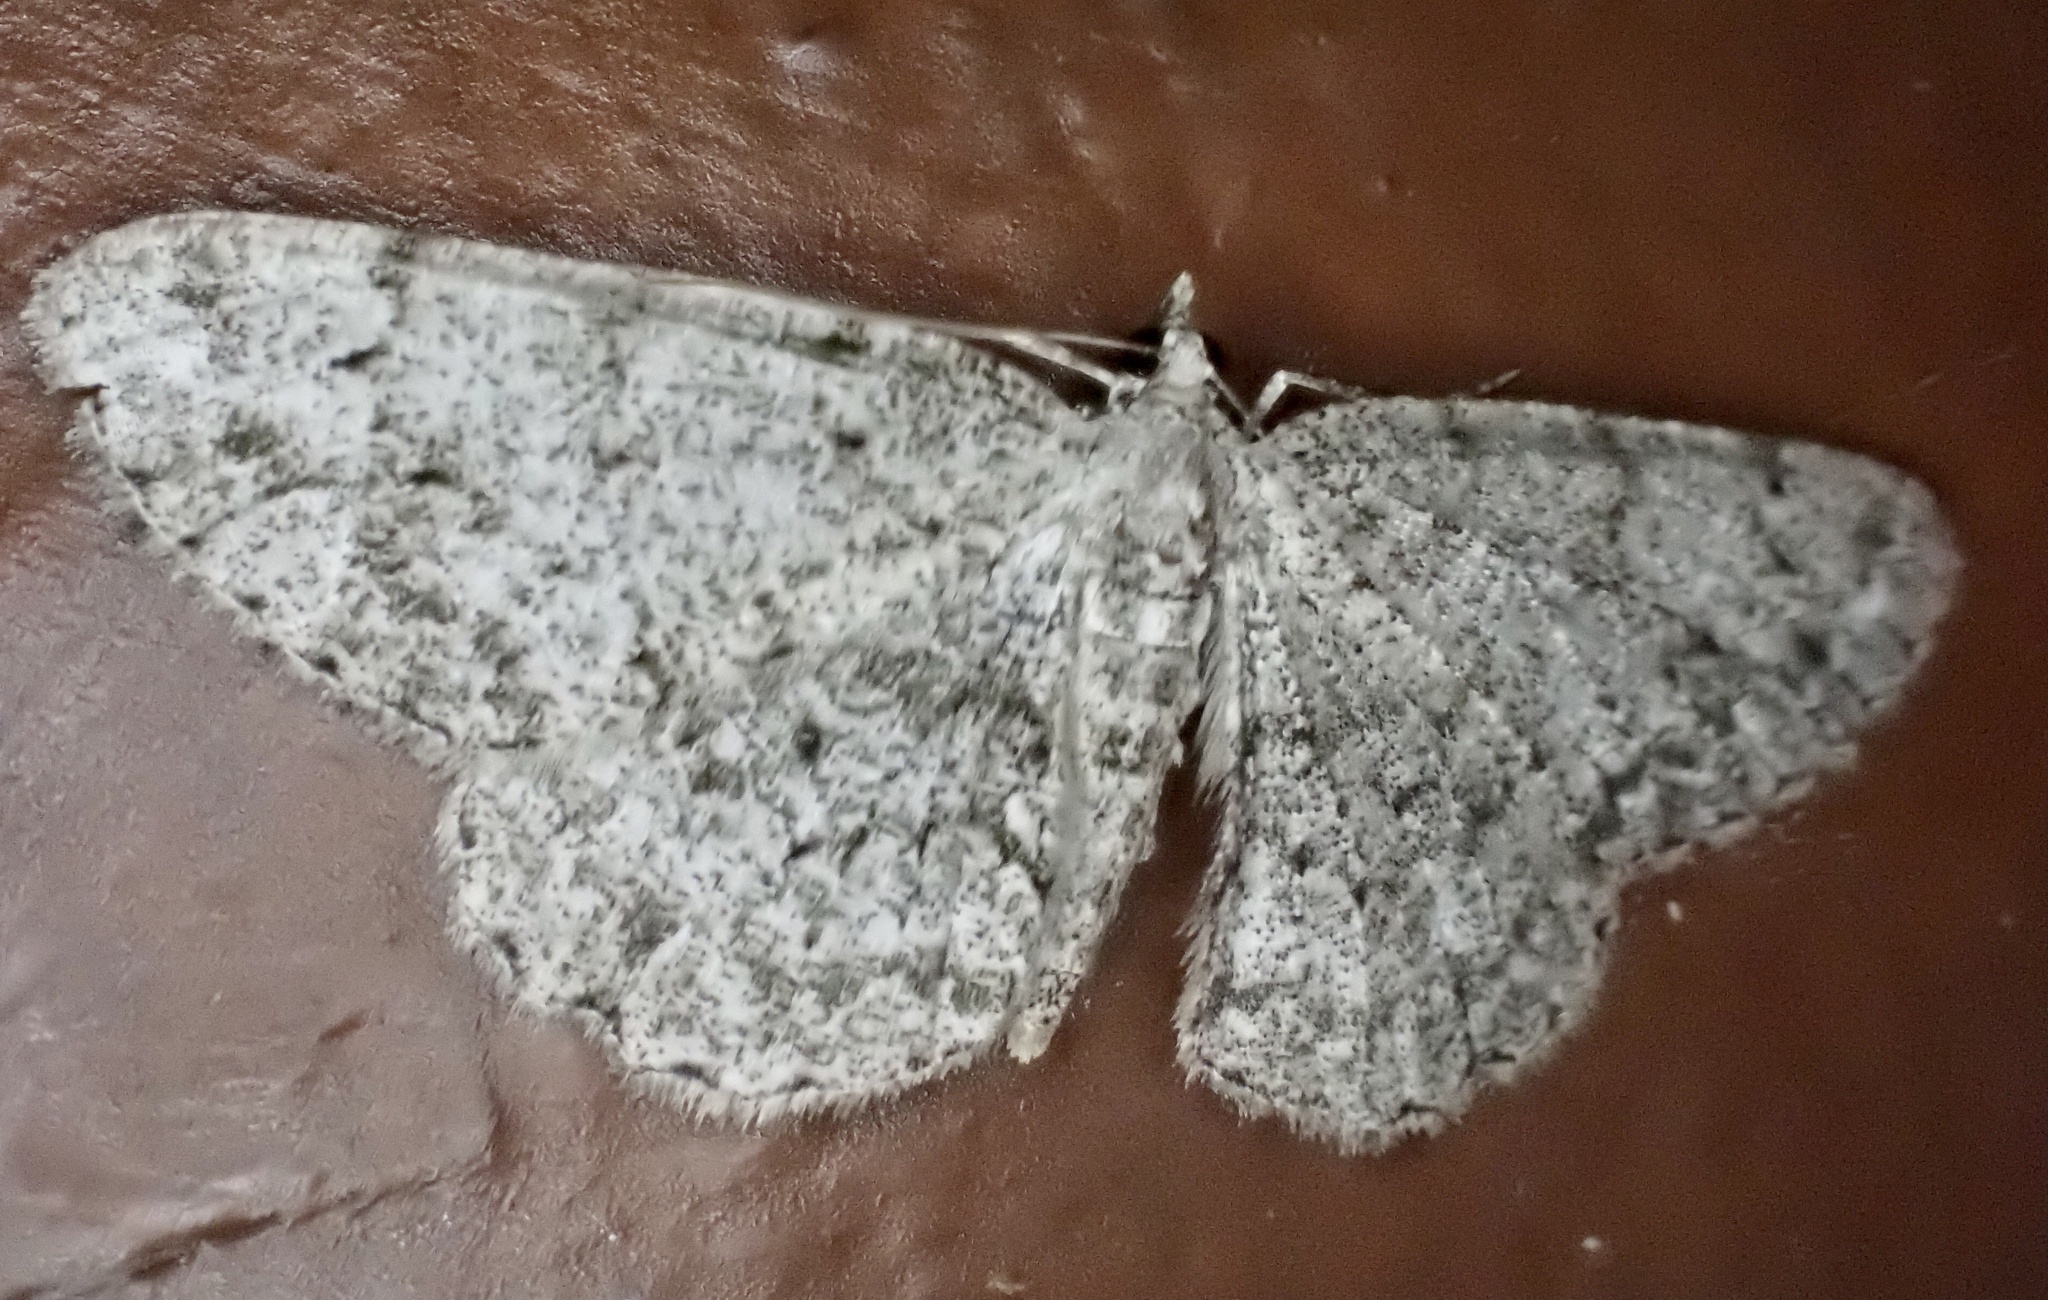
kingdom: Animalia
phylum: Arthropoda
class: Insecta
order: Lepidoptera
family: Geometridae
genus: Protoboarmia
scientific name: Protoboarmia porcelaria
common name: Porcelain gray
